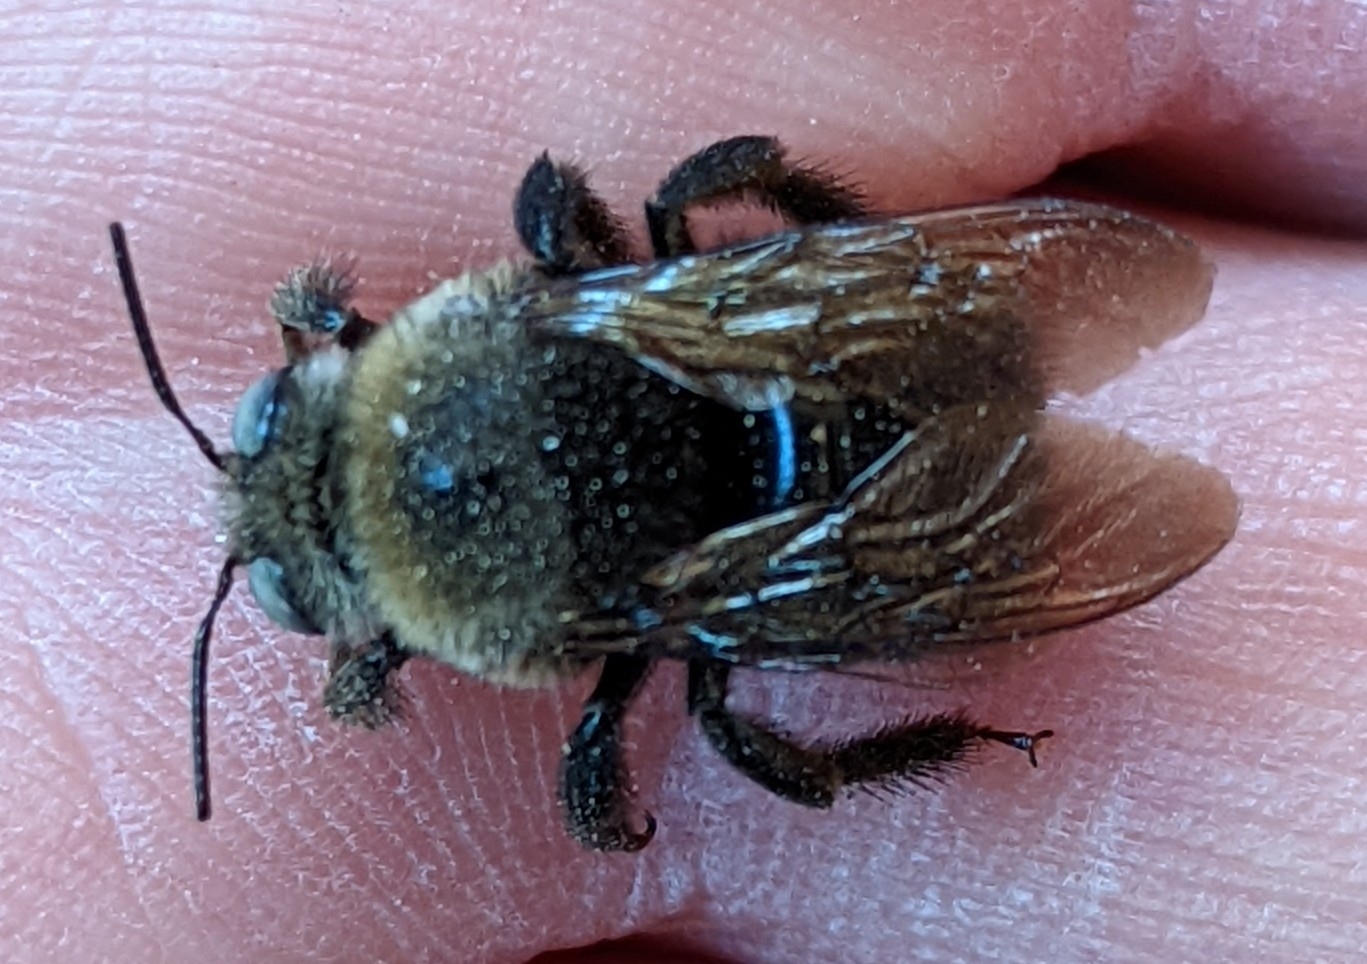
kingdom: Animalia
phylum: Arthropoda
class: Insecta
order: Hymenoptera
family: Apidae
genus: Xylocopa
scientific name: Xylocopa tabaniformis
